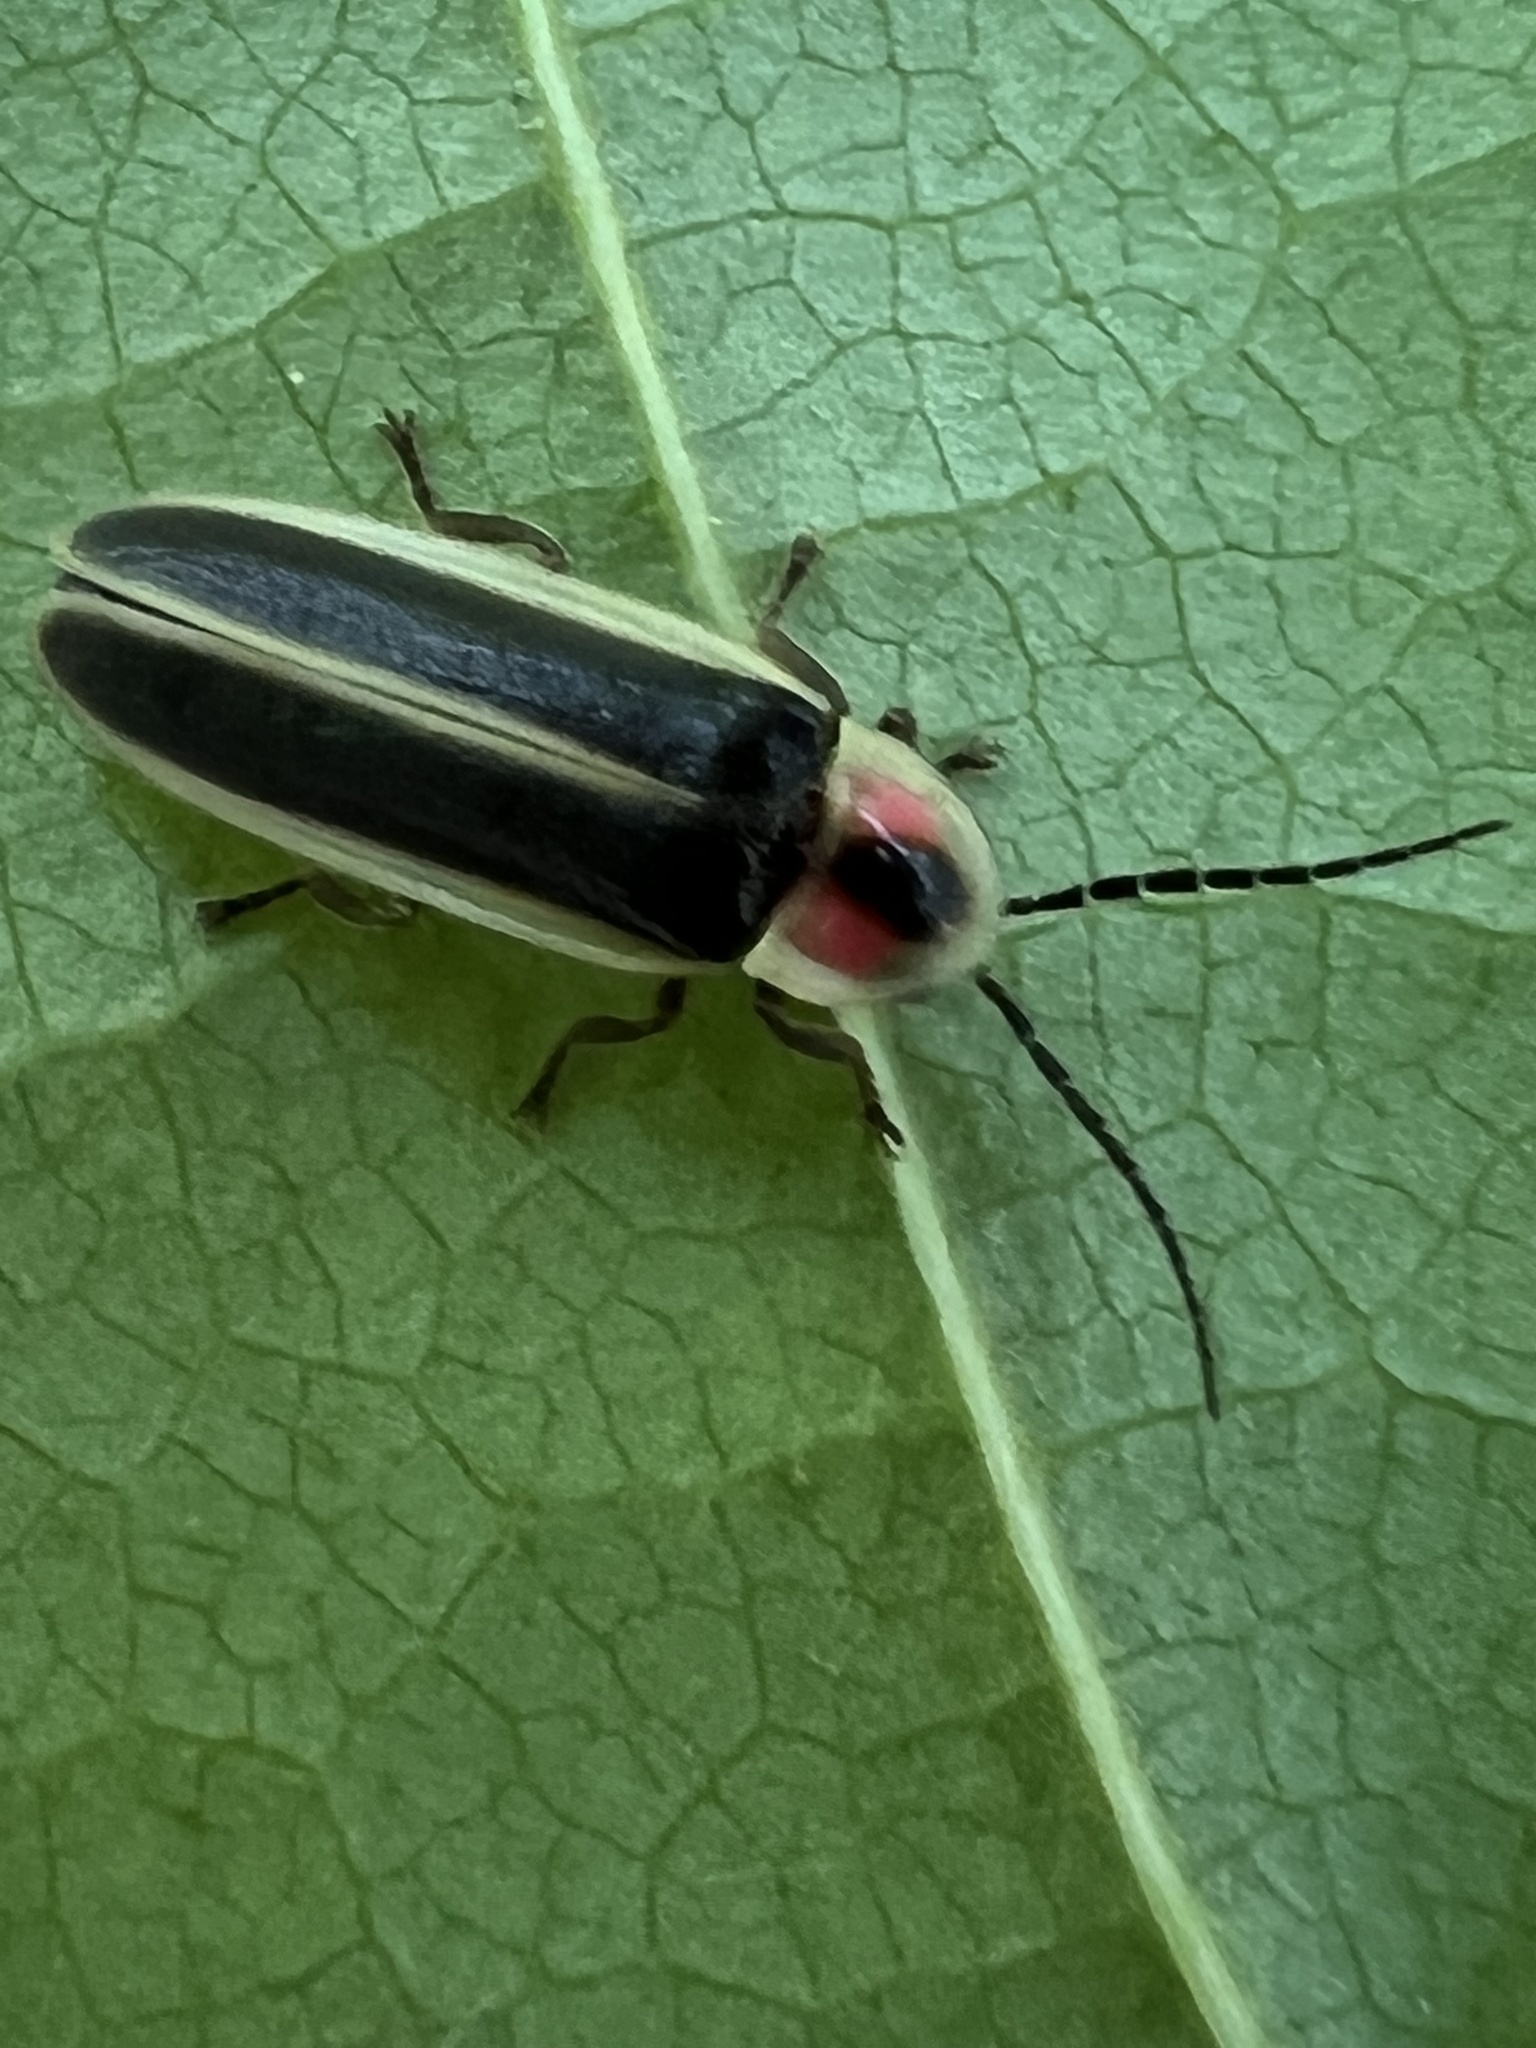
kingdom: Animalia
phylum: Arthropoda
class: Insecta
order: Coleoptera
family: Lampyridae
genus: Photinus
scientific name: Photinus pyralis
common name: Big dipper firefly
